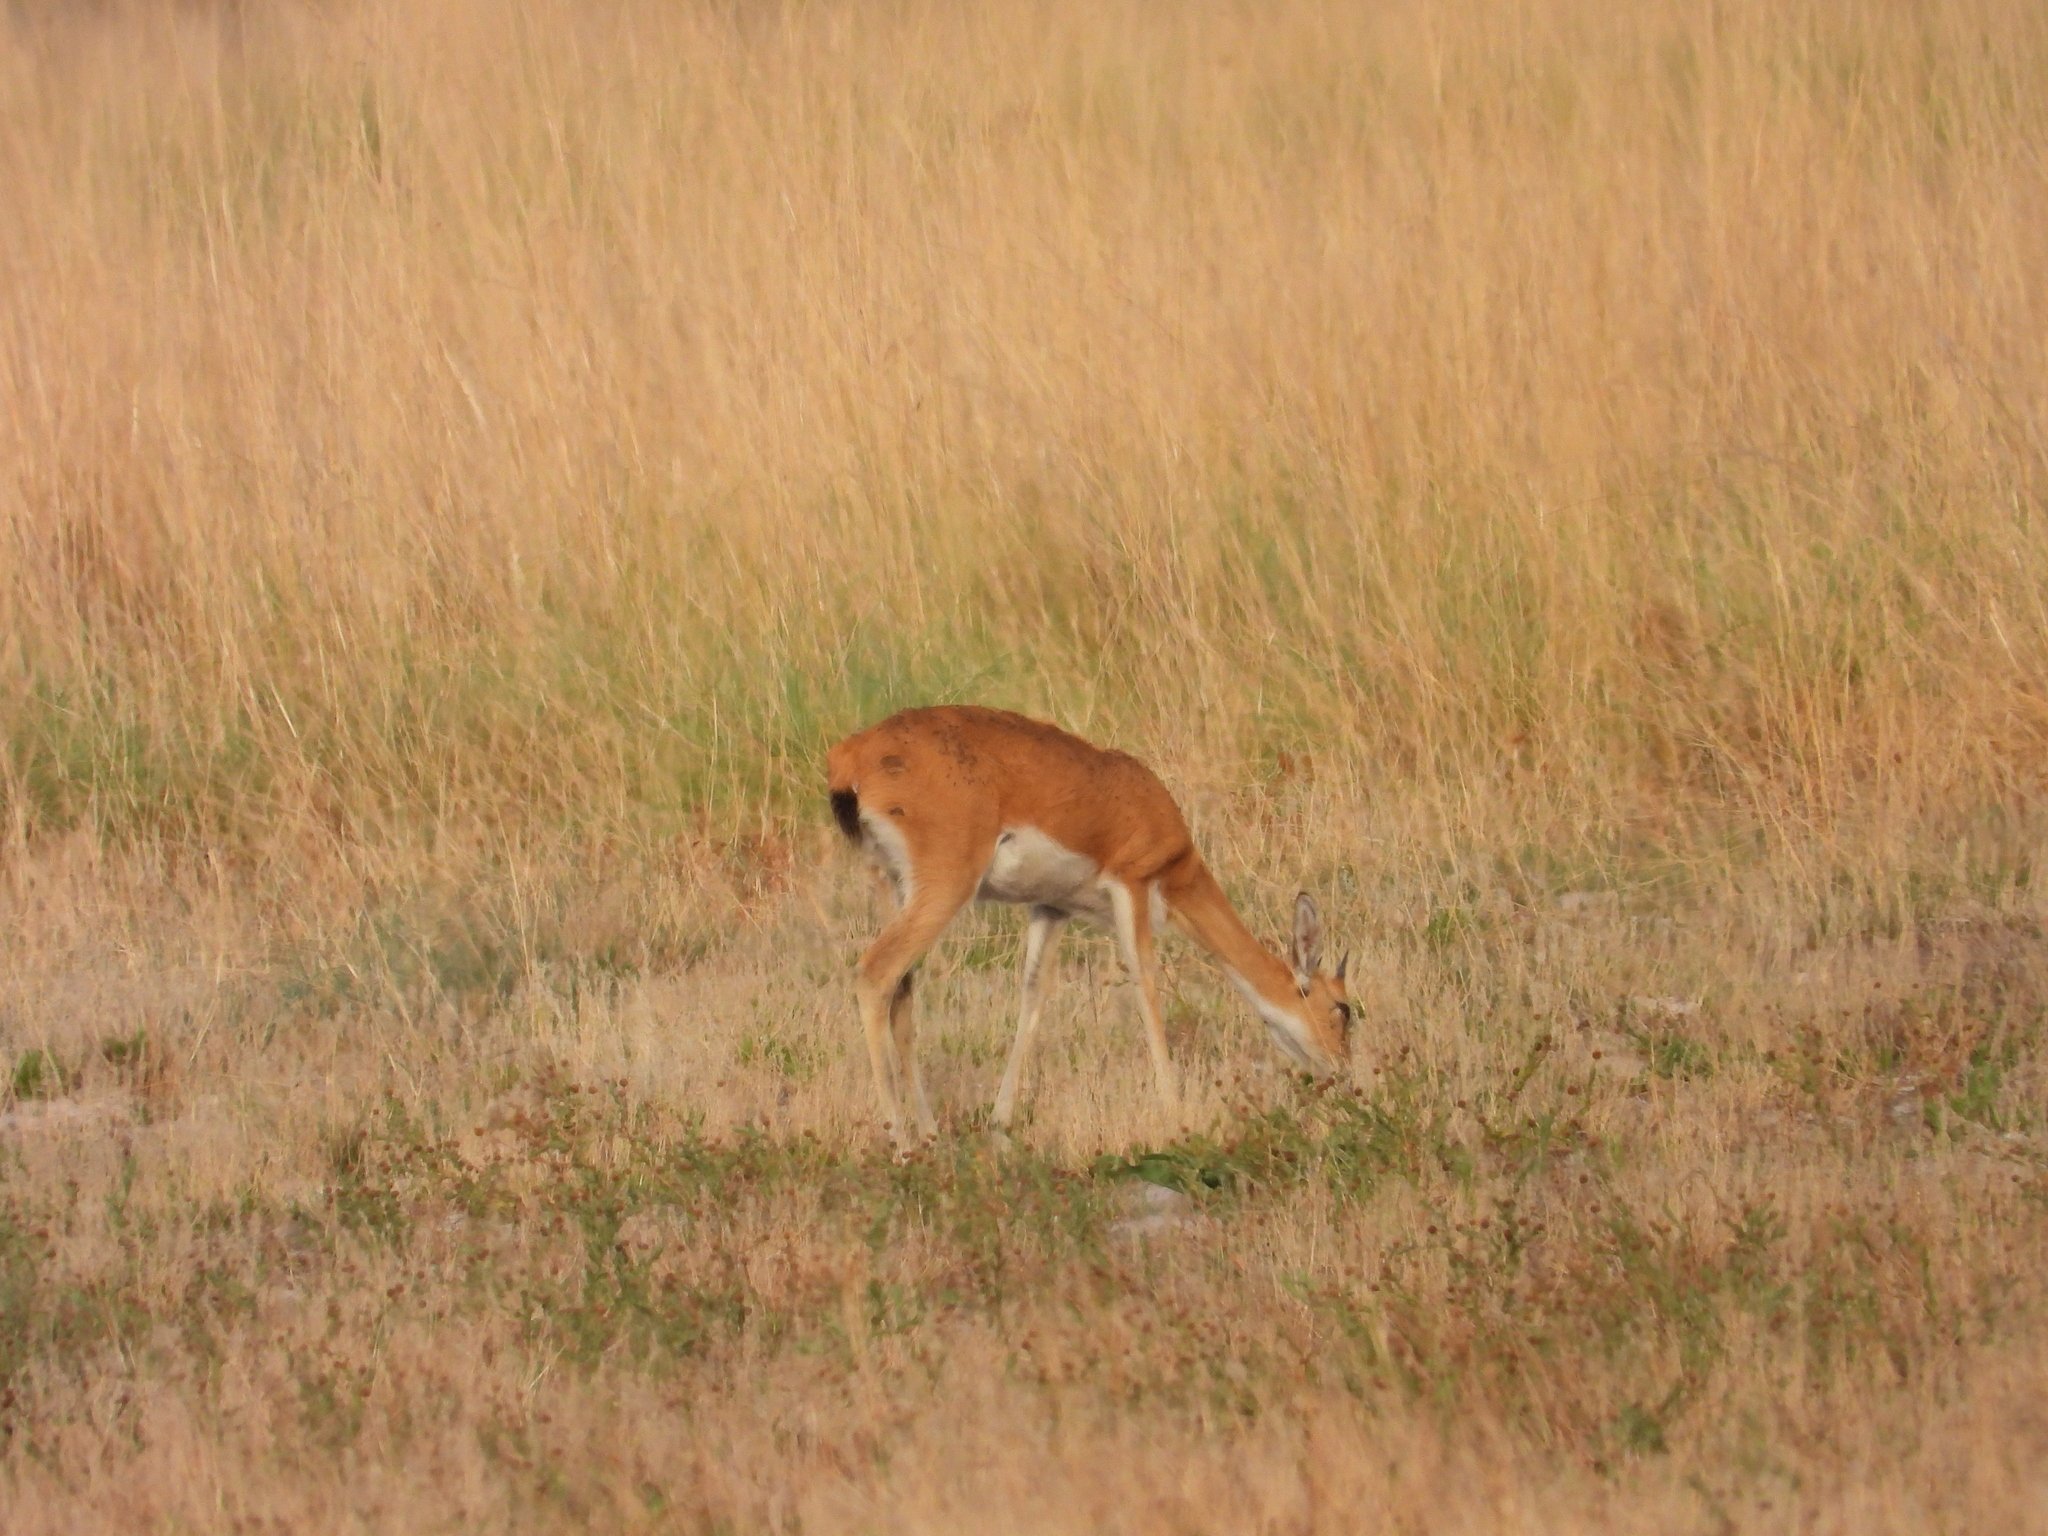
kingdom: Animalia
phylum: Chordata
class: Mammalia
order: Artiodactyla
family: Bovidae
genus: Ourebia
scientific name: Ourebia ourebi
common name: Oribi
